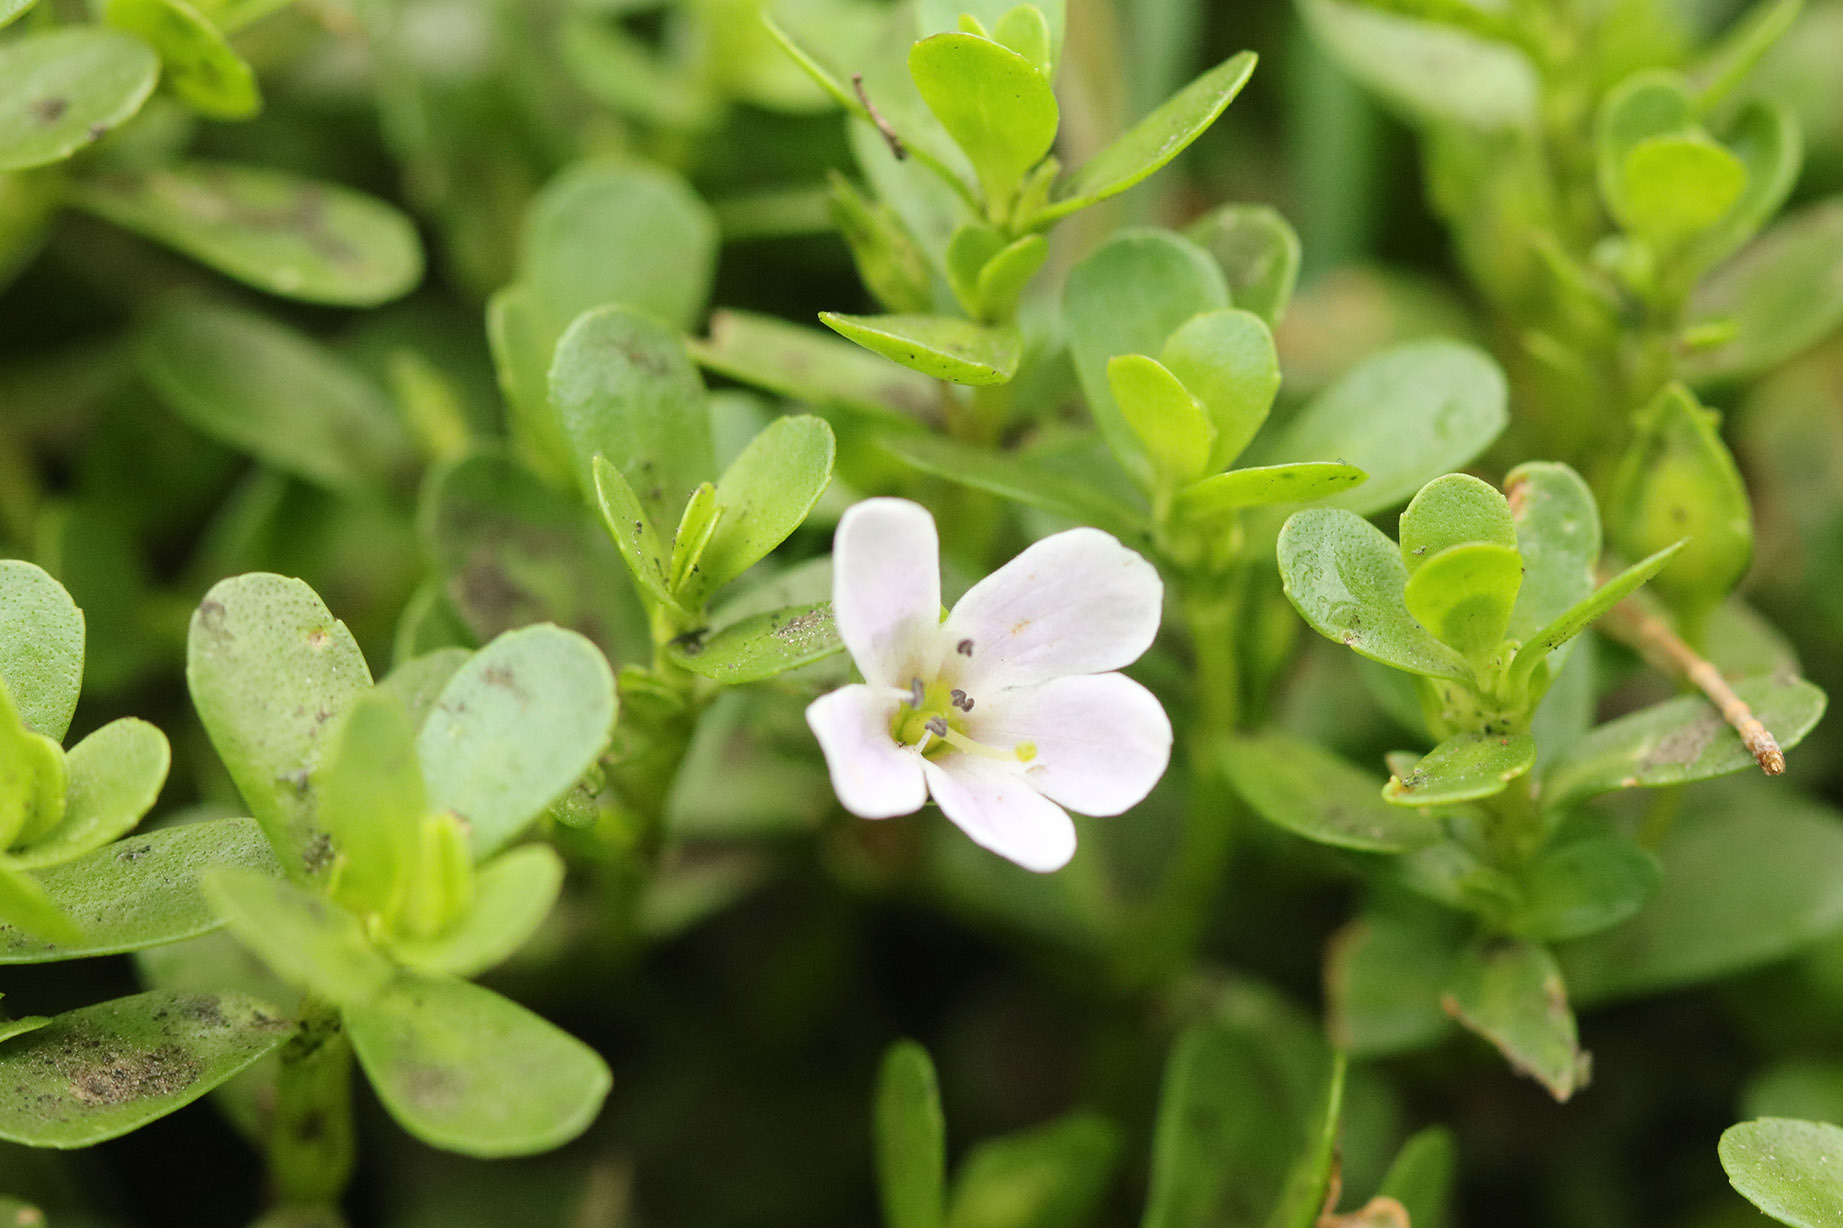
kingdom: Plantae
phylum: Tracheophyta
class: Magnoliopsida
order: Lamiales
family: Plantaginaceae
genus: Bacopa
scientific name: Bacopa monnieri
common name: Indian-pennywort
